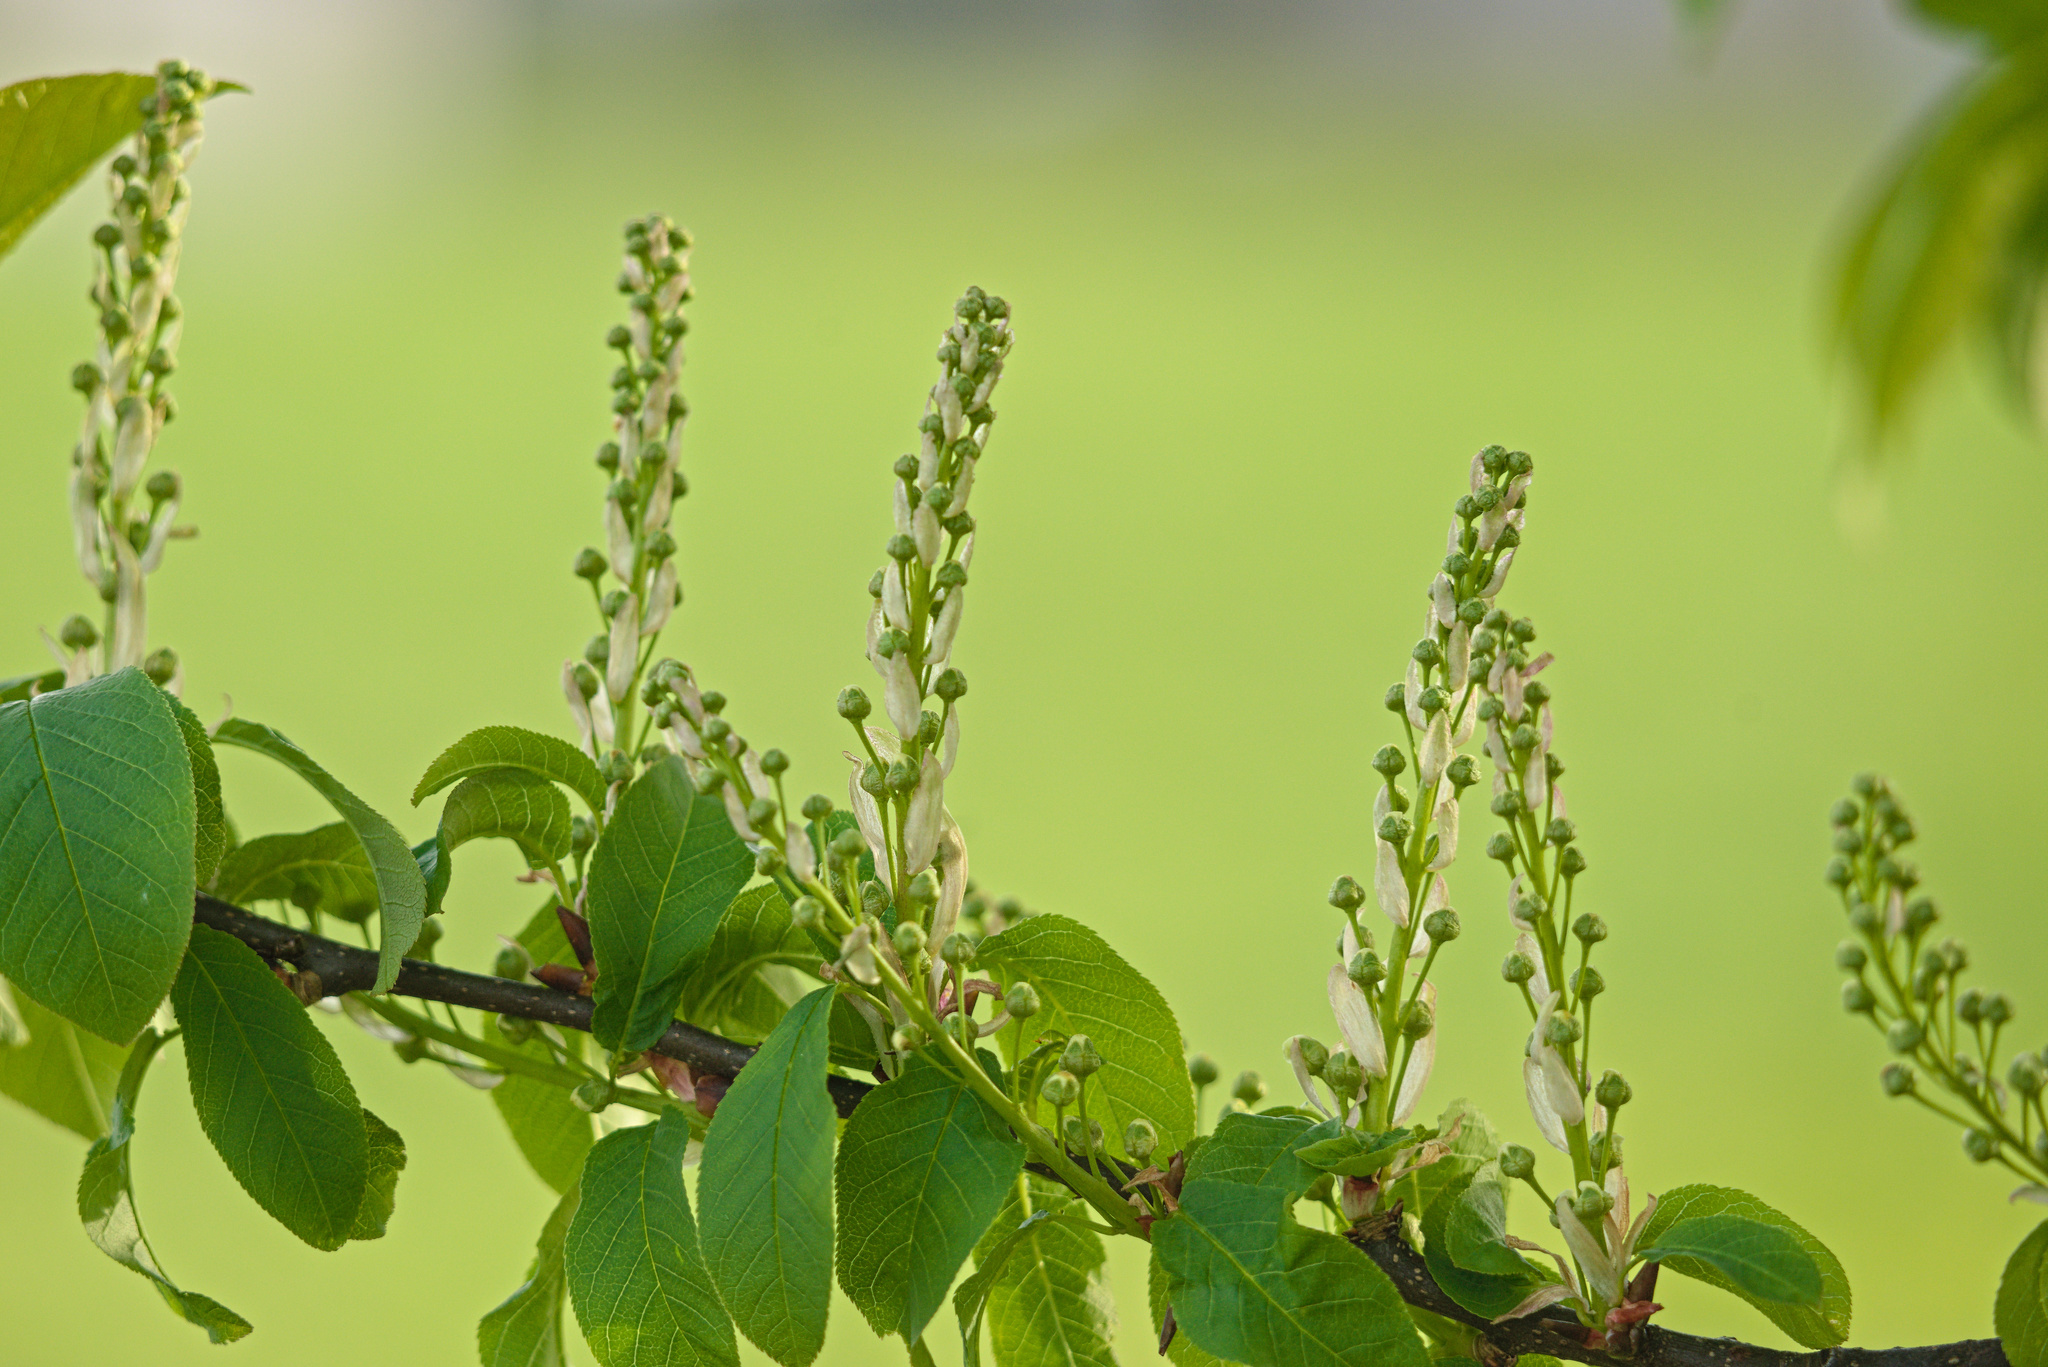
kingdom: Plantae
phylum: Tracheophyta
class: Magnoliopsida
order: Rosales
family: Rosaceae
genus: Prunus
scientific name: Prunus padus
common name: Bird cherry
